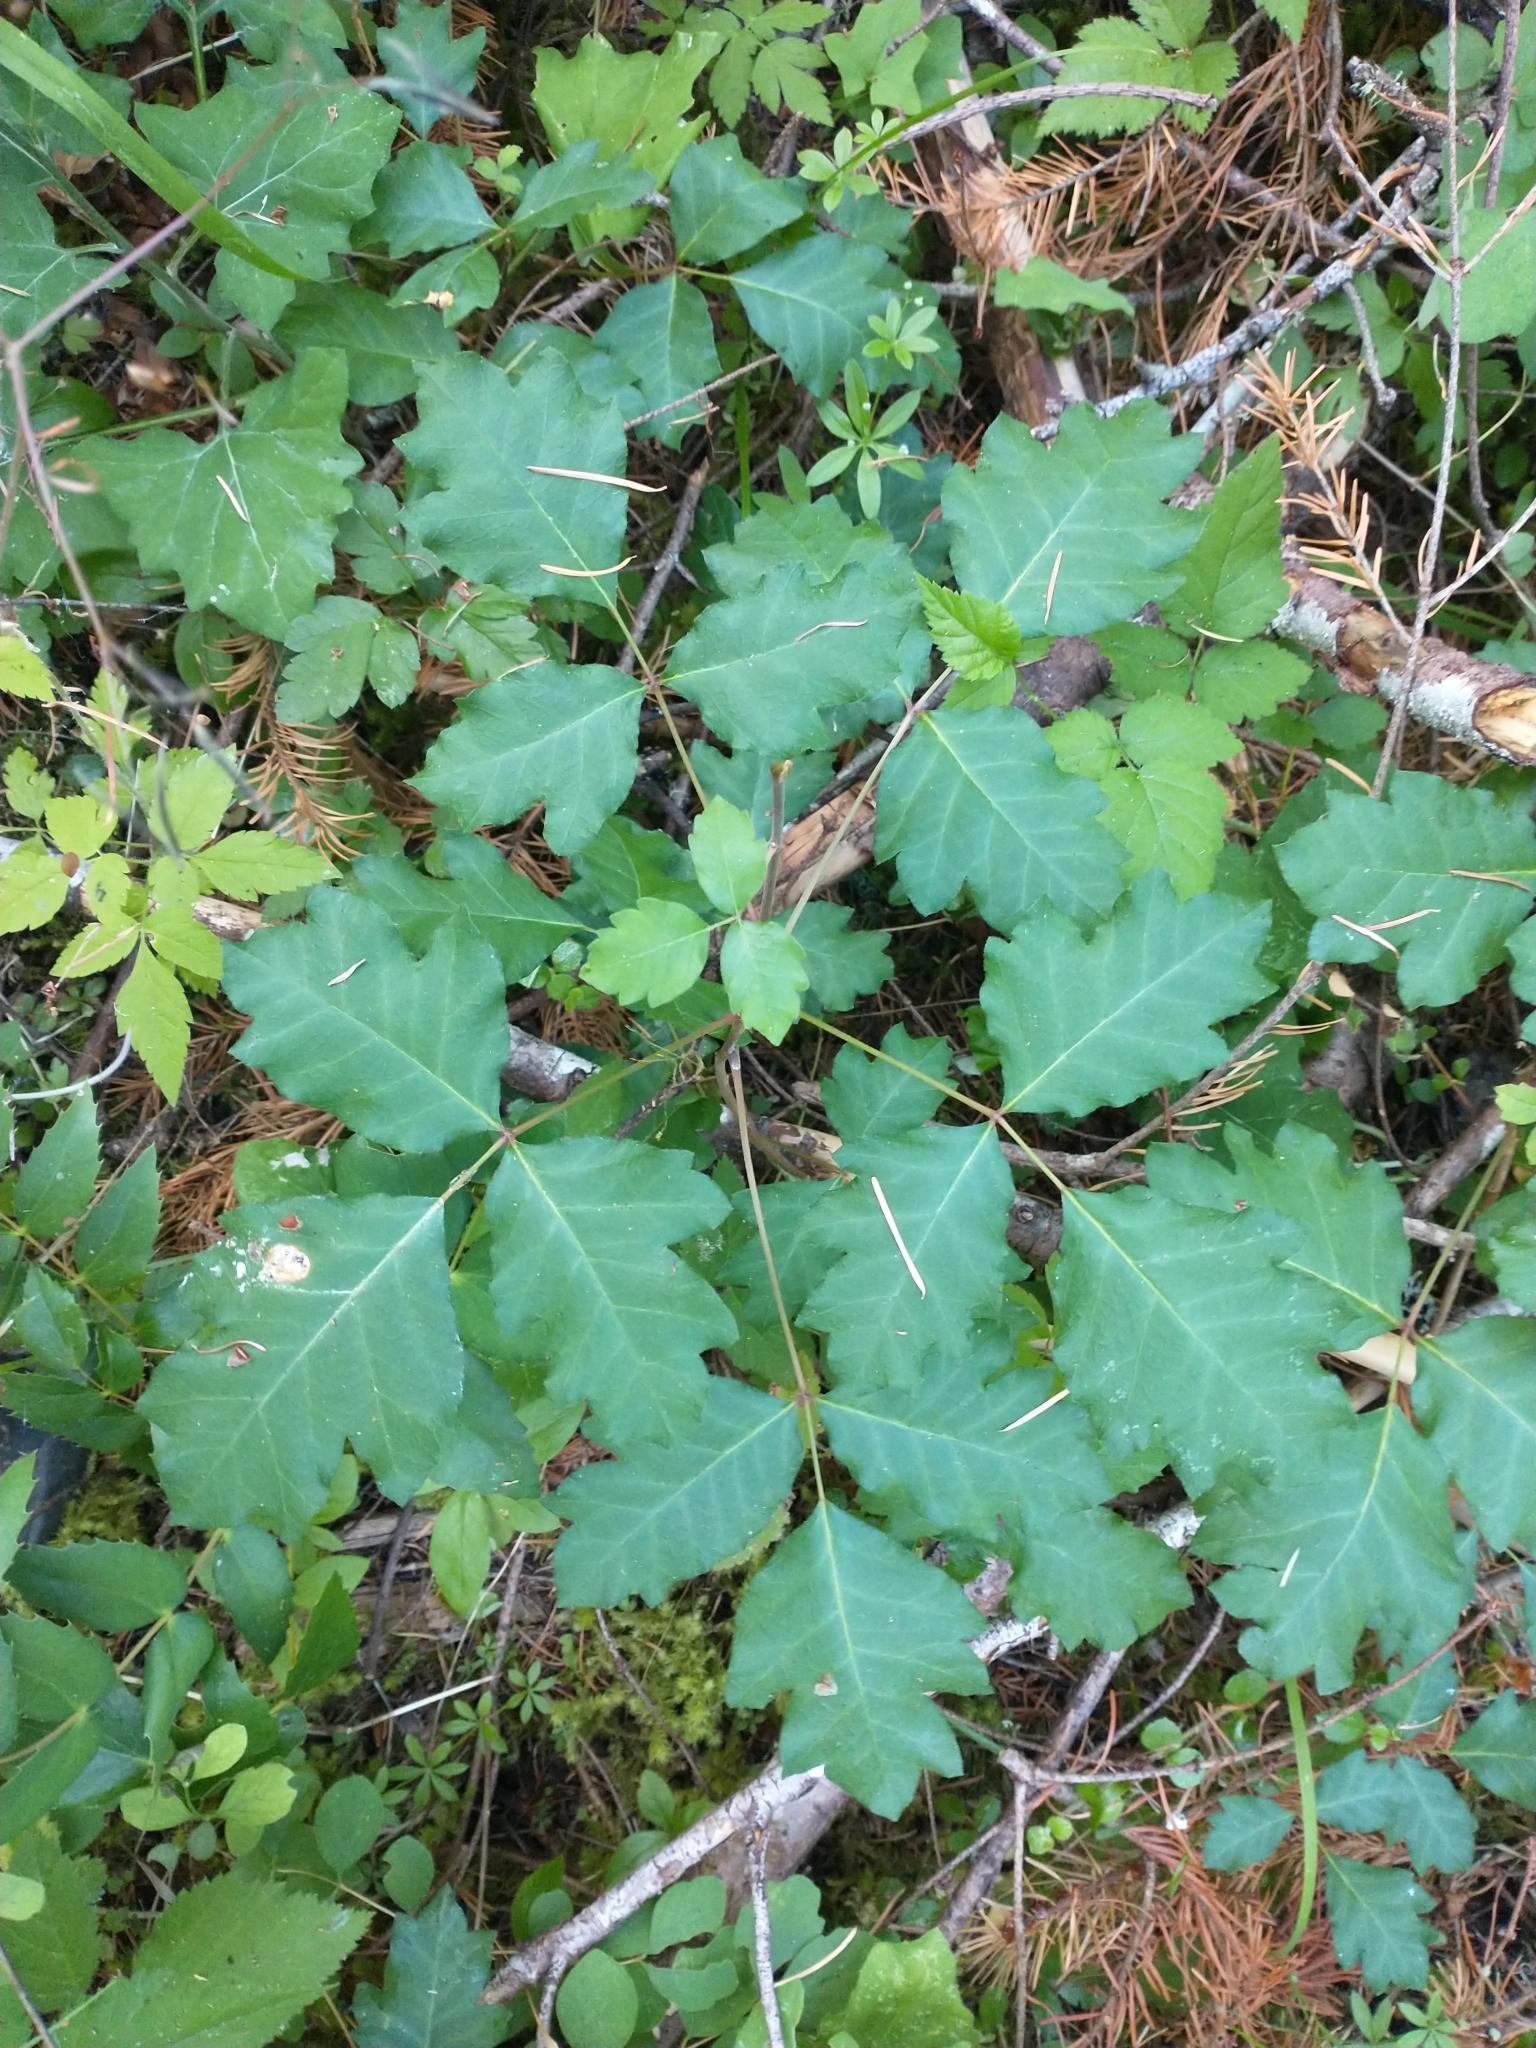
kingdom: Plantae
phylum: Tracheophyta
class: Magnoliopsida
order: Sapindales
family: Anacardiaceae
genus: Toxicodendron
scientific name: Toxicodendron diversilobum
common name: Pacific poison-oak
